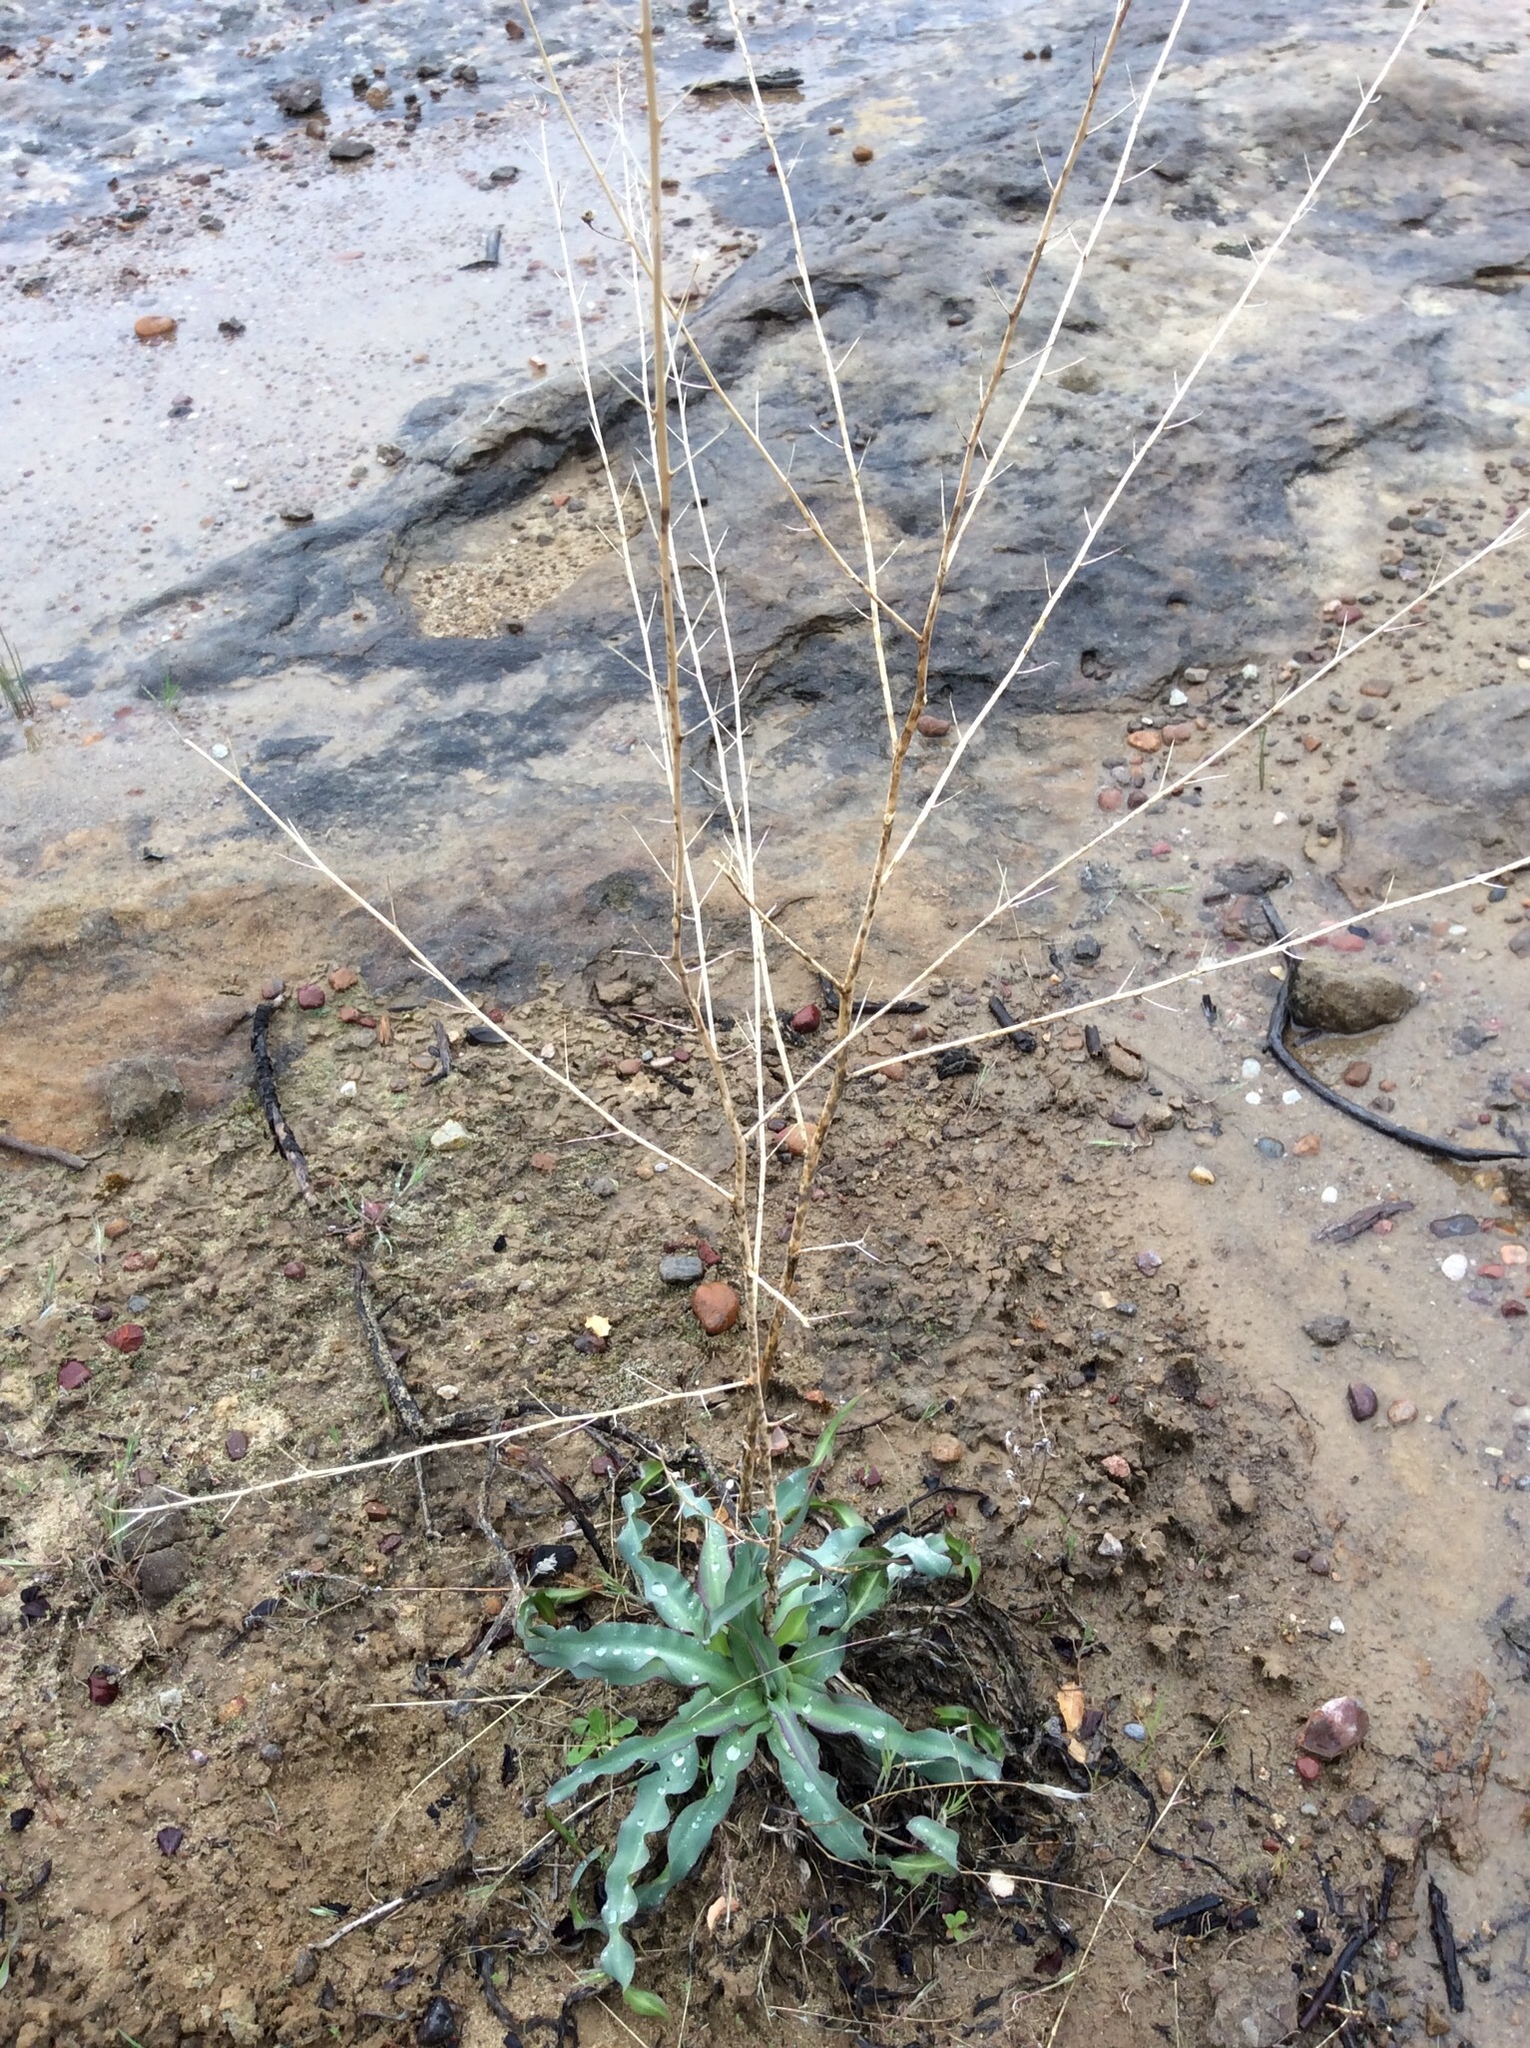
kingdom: Plantae
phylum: Tracheophyta
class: Liliopsida
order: Asparagales
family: Asparagaceae
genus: Chlorogalum
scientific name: Chlorogalum pomeridianum
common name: Amole
